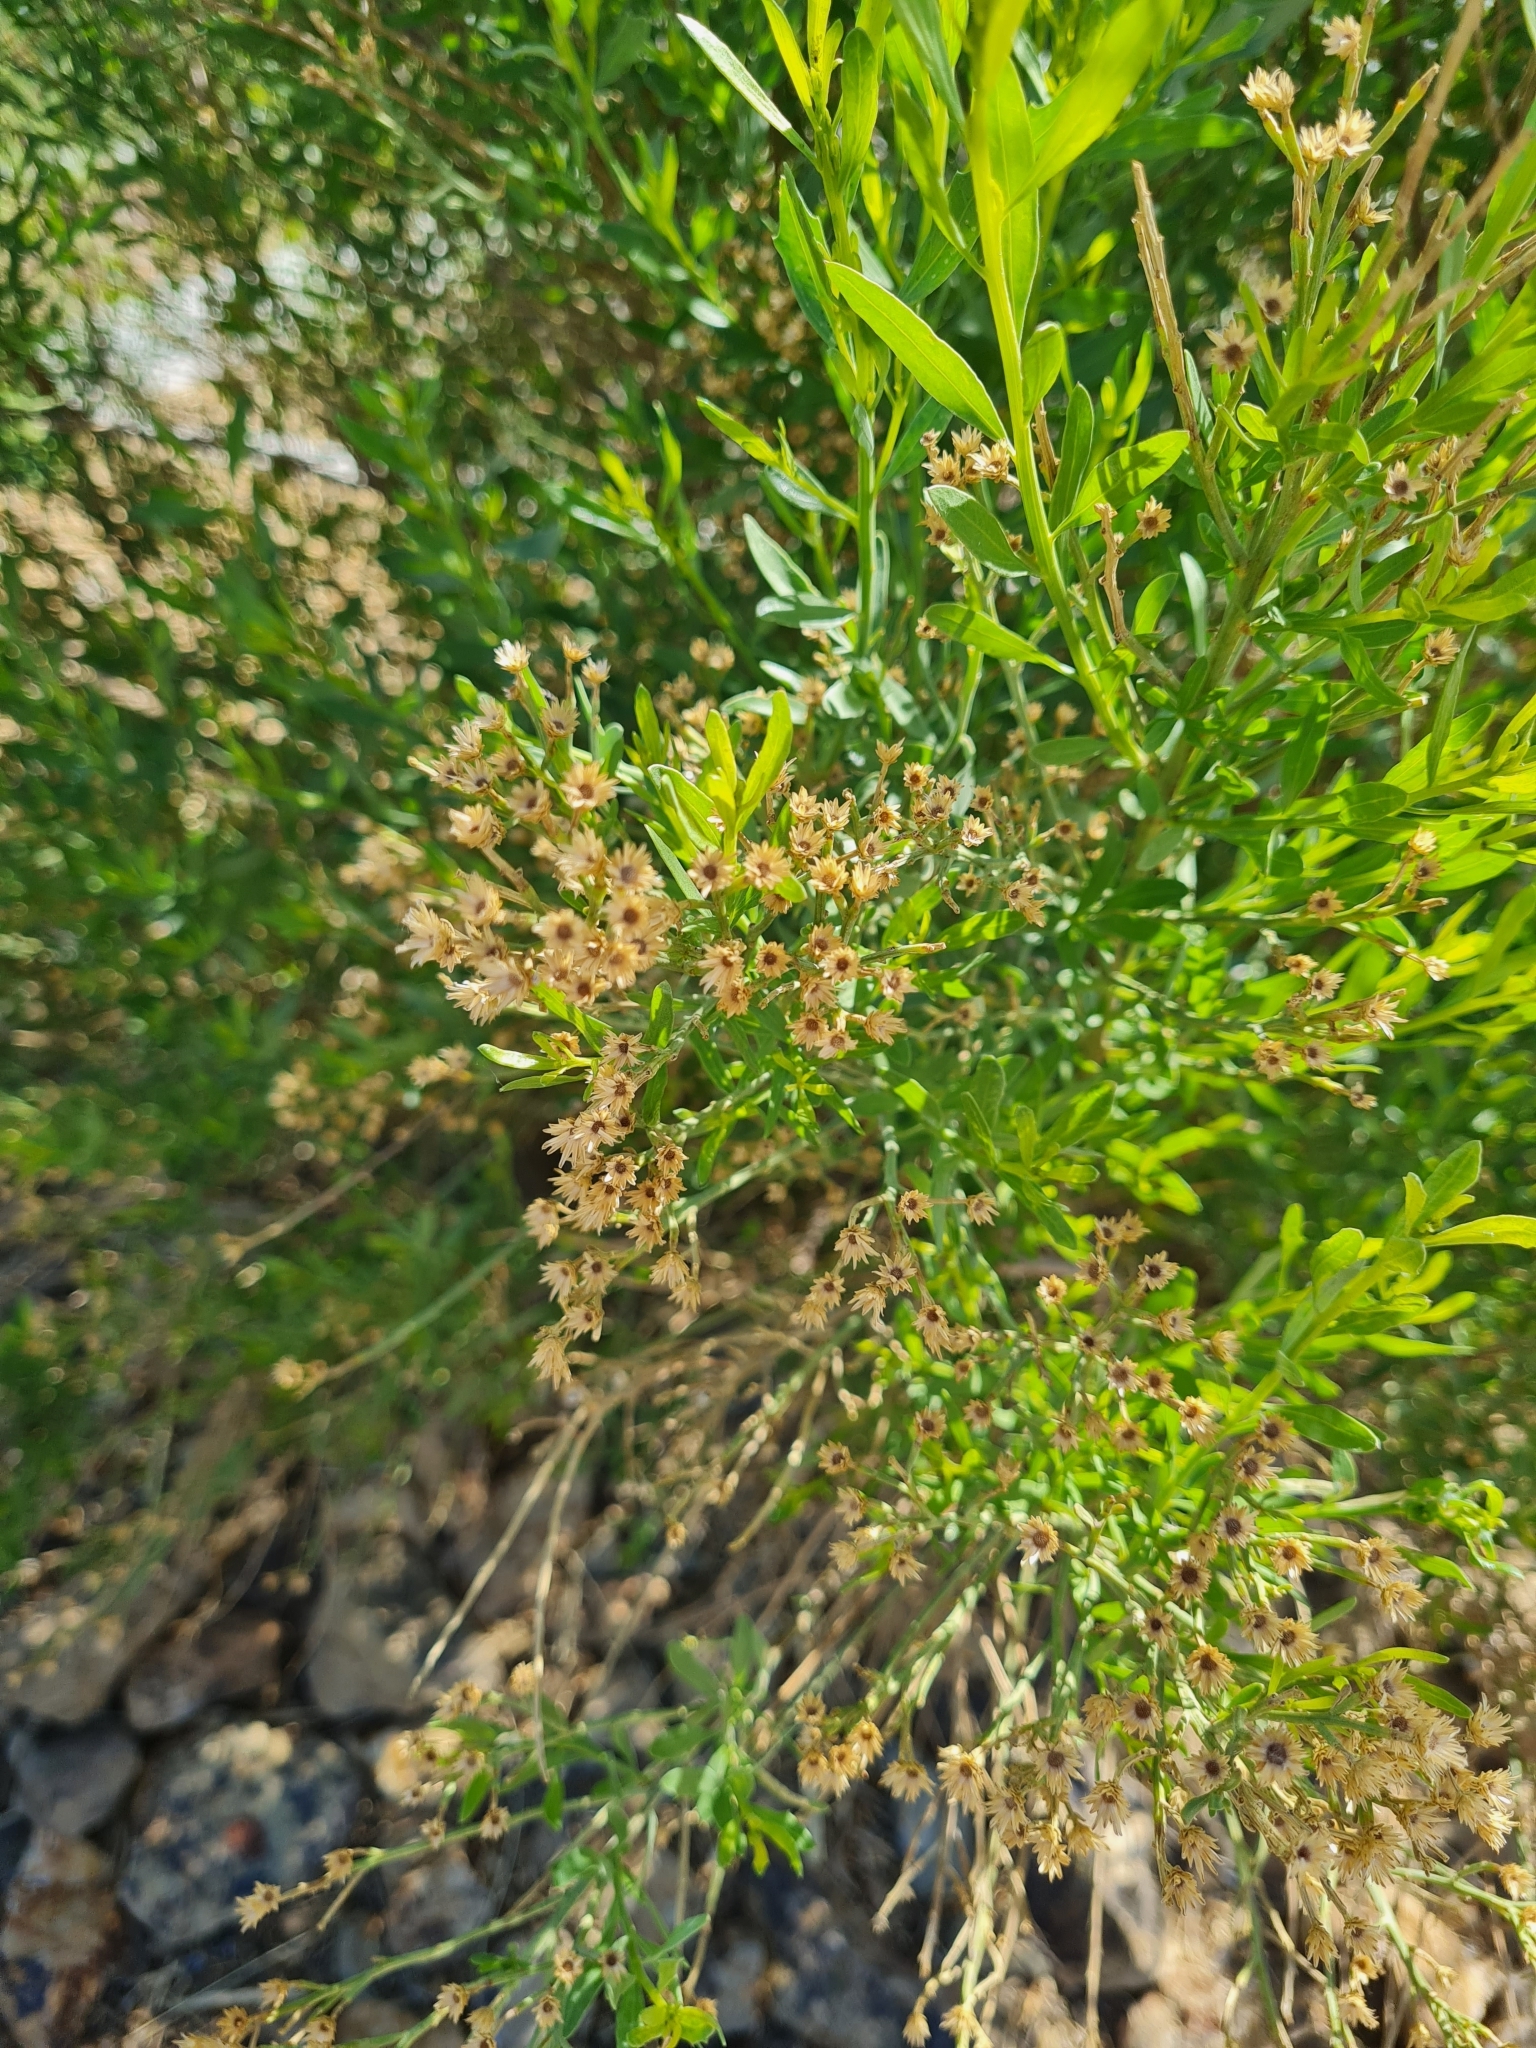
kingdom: Plantae
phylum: Tracheophyta
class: Magnoliopsida
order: Asterales
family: Asteraceae
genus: Baccharis
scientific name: Baccharis sarothroides
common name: Desert-broom
